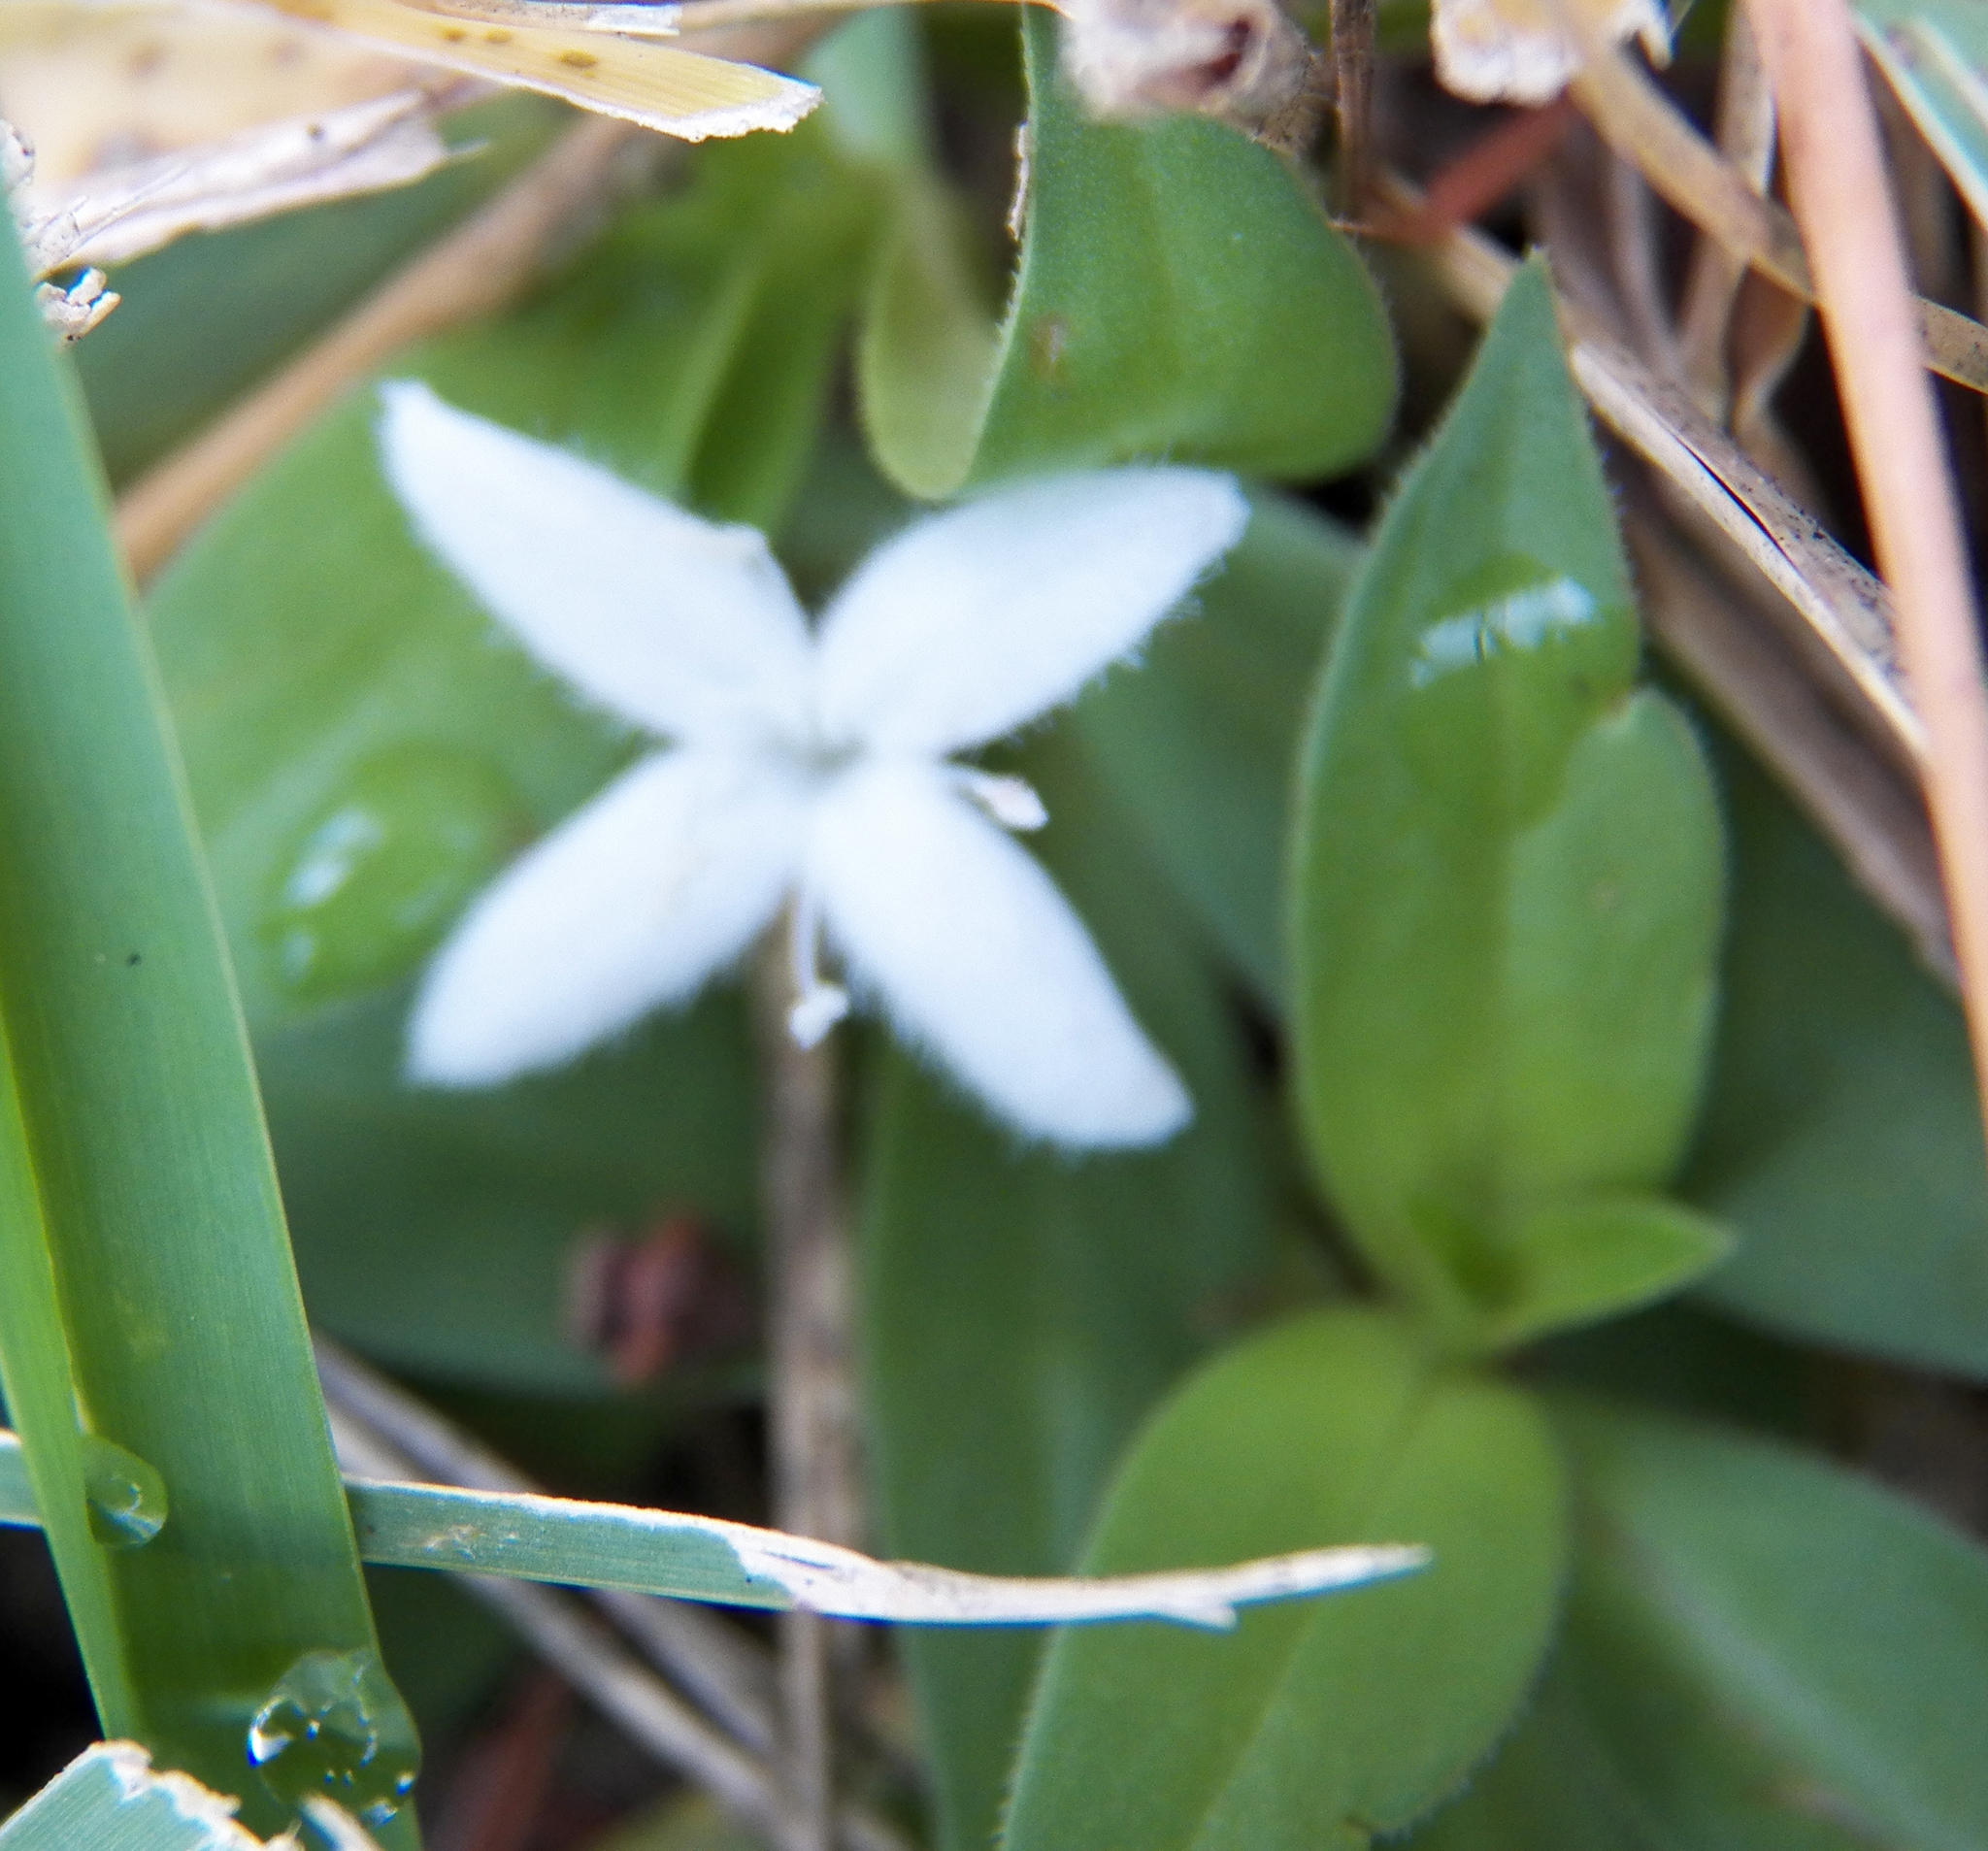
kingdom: Plantae
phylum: Tracheophyta
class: Magnoliopsida
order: Gentianales
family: Rubiaceae
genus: Diodia
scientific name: Diodia virginiana
